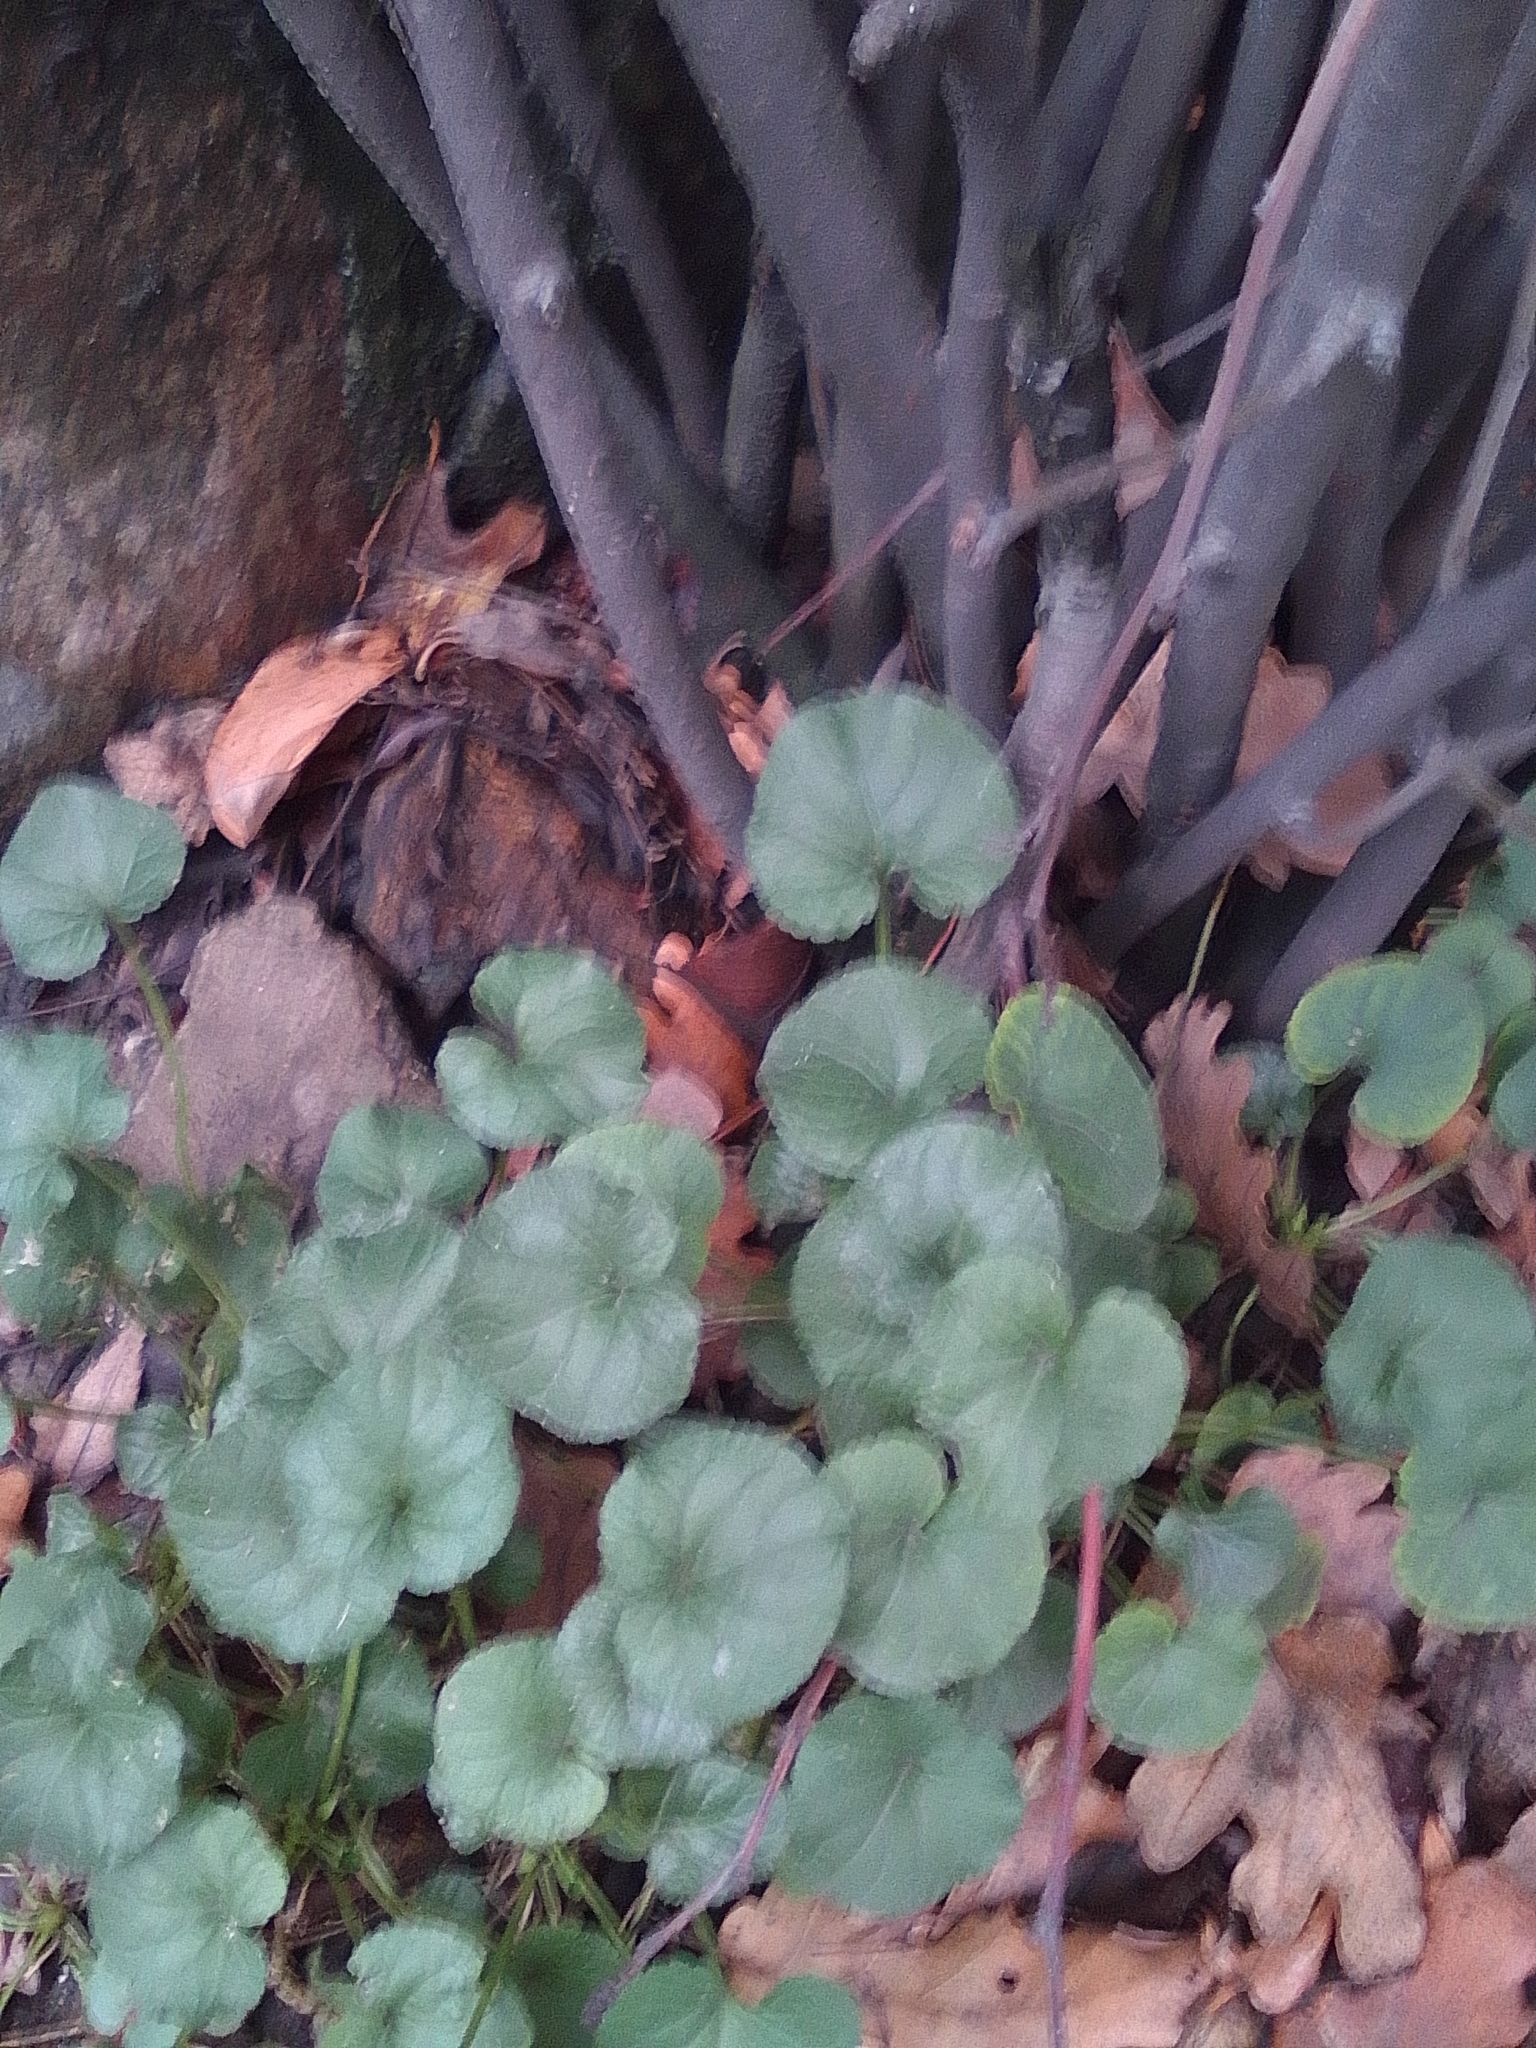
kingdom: Plantae
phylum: Tracheophyta
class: Magnoliopsida
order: Ranunculales
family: Ranunculaceae
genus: Ficaria
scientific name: Ficaria
